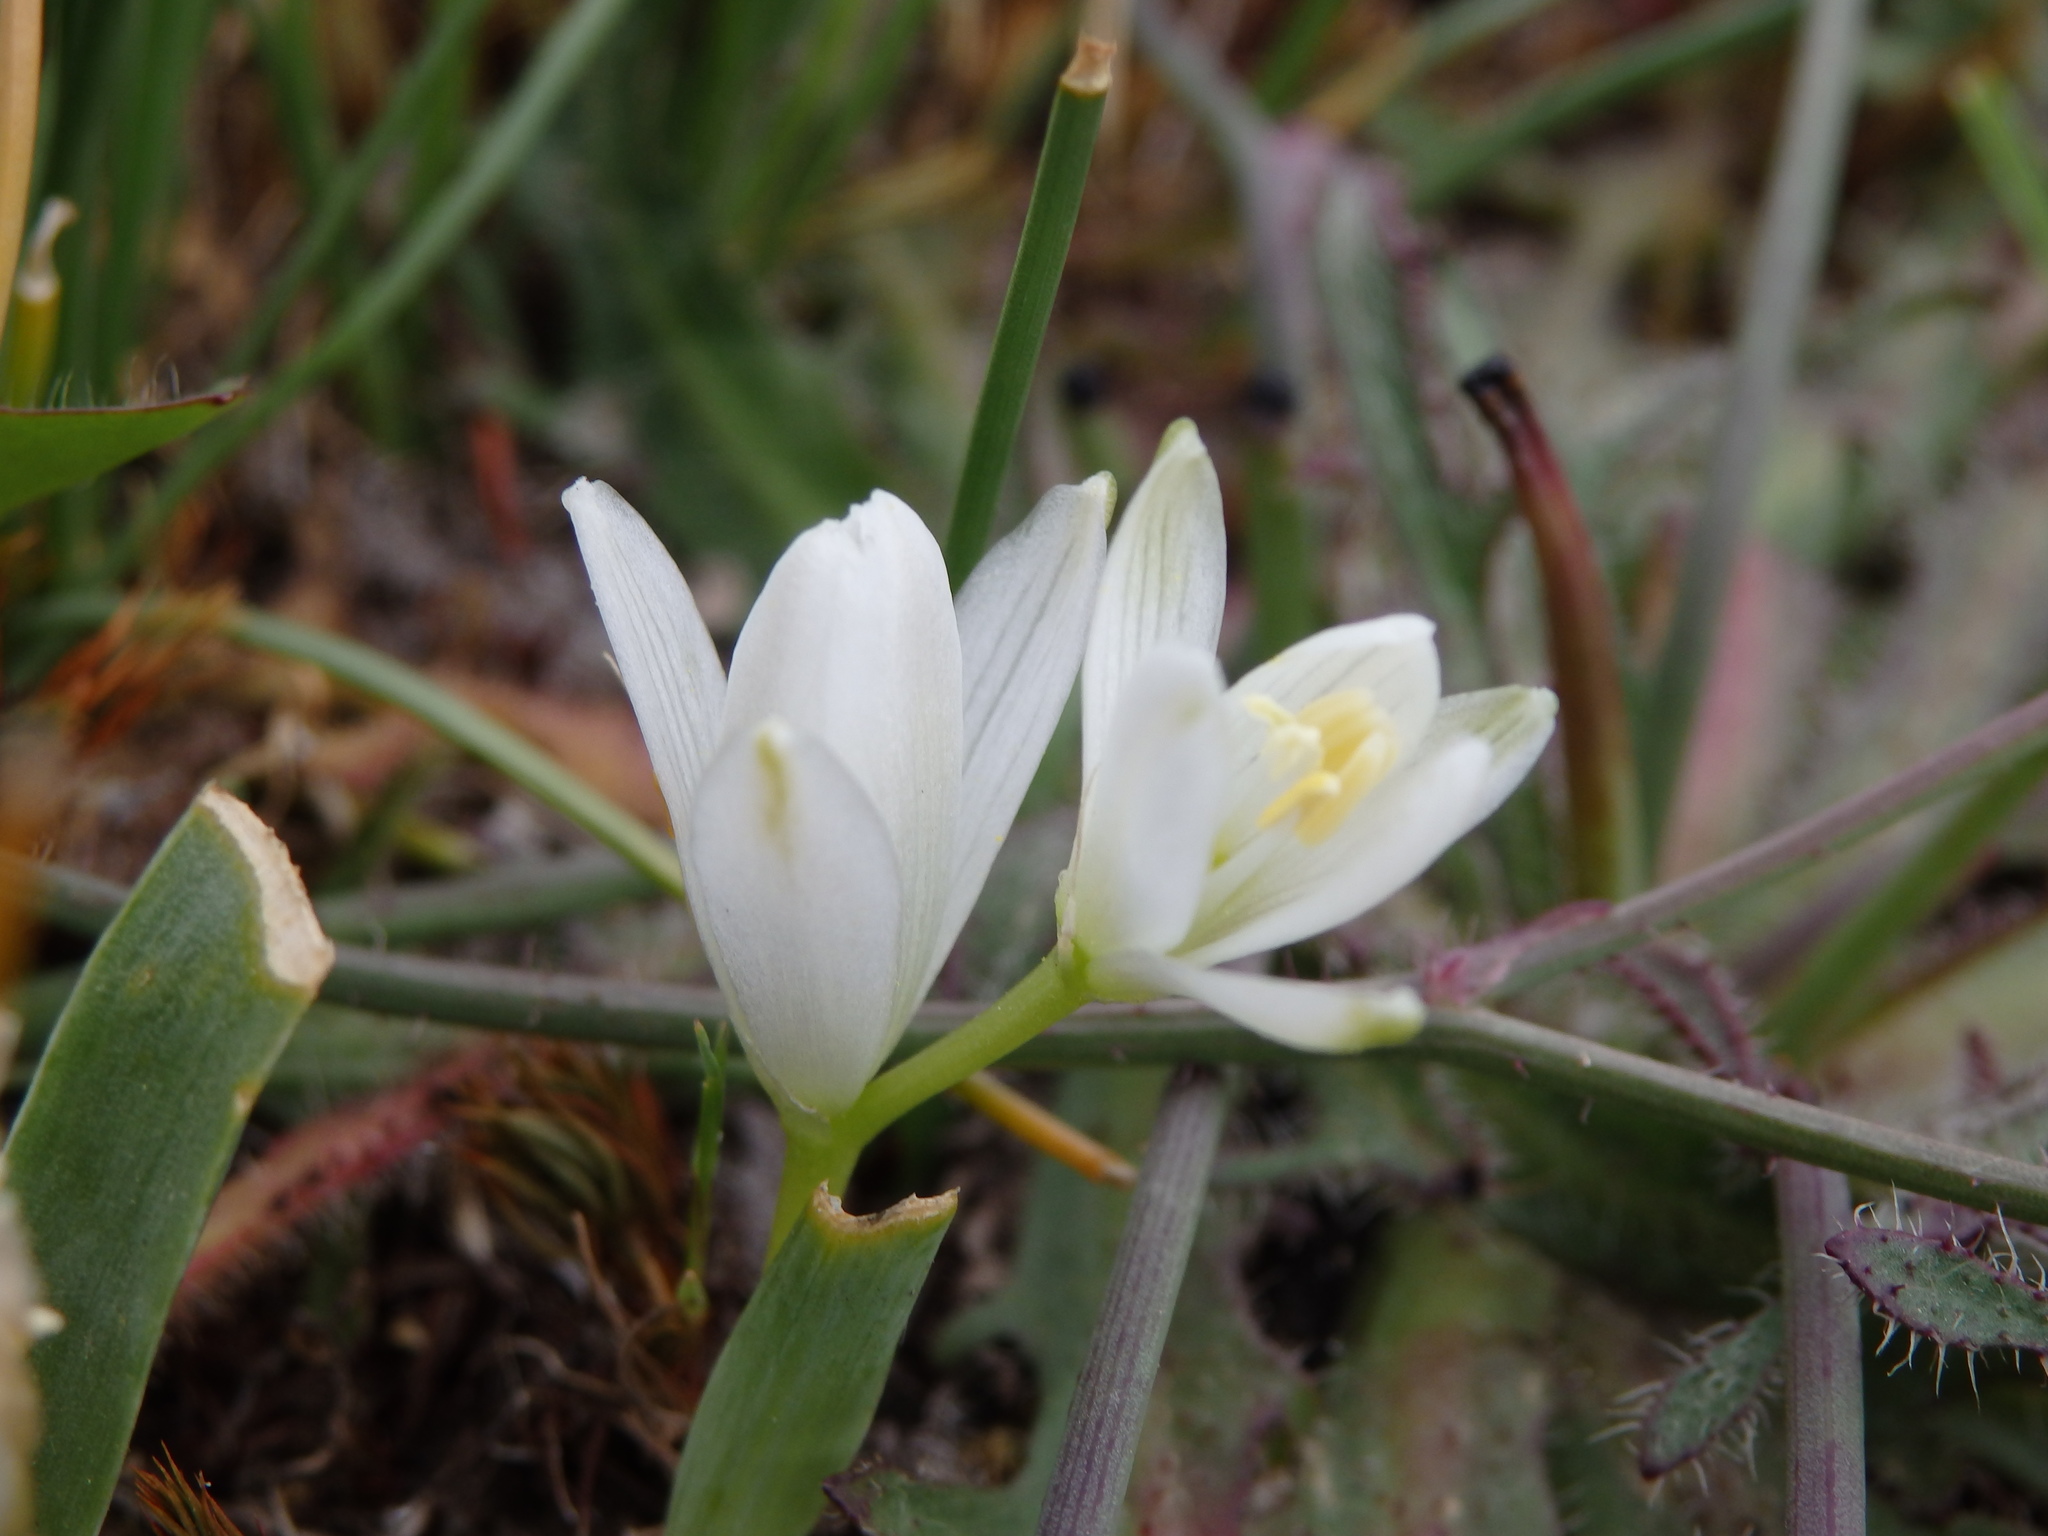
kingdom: Plantae
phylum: Tracheophyta
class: Liliopsida
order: Asparagales
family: Asparagaceae
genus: Ornithogalum
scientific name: Ornithogalum concinnum
